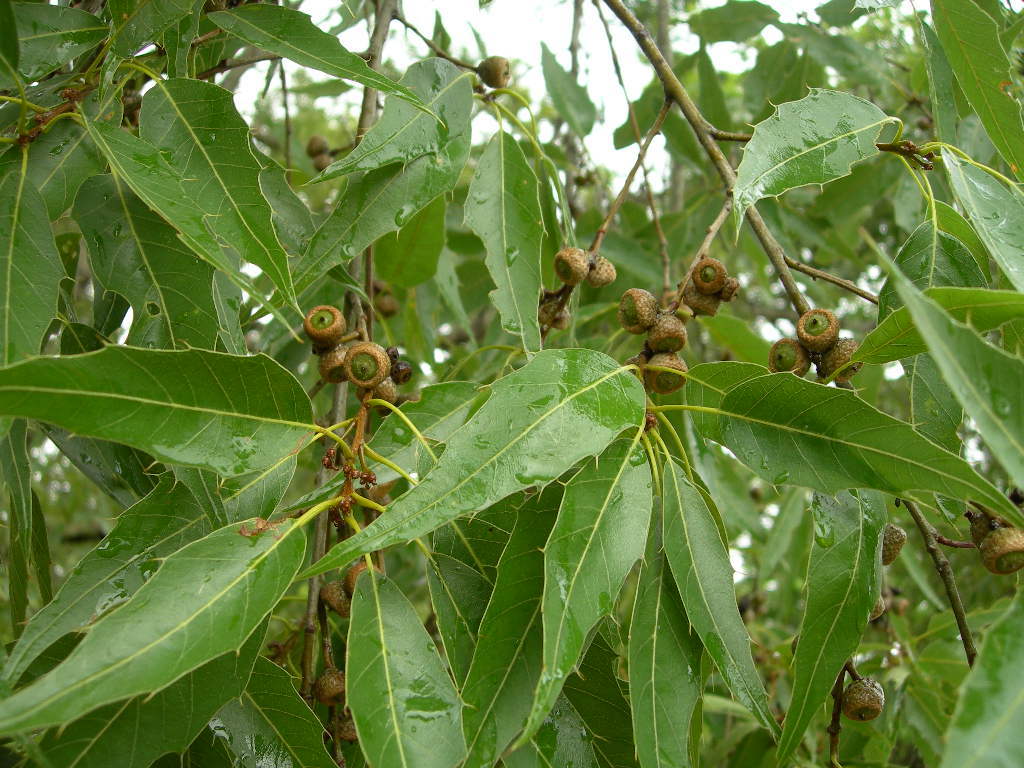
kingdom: Plantae
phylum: Tracheophyta
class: Magnoliopsida
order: Fagales
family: Fagaceae
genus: Quercus
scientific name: Quercus acutifolia
